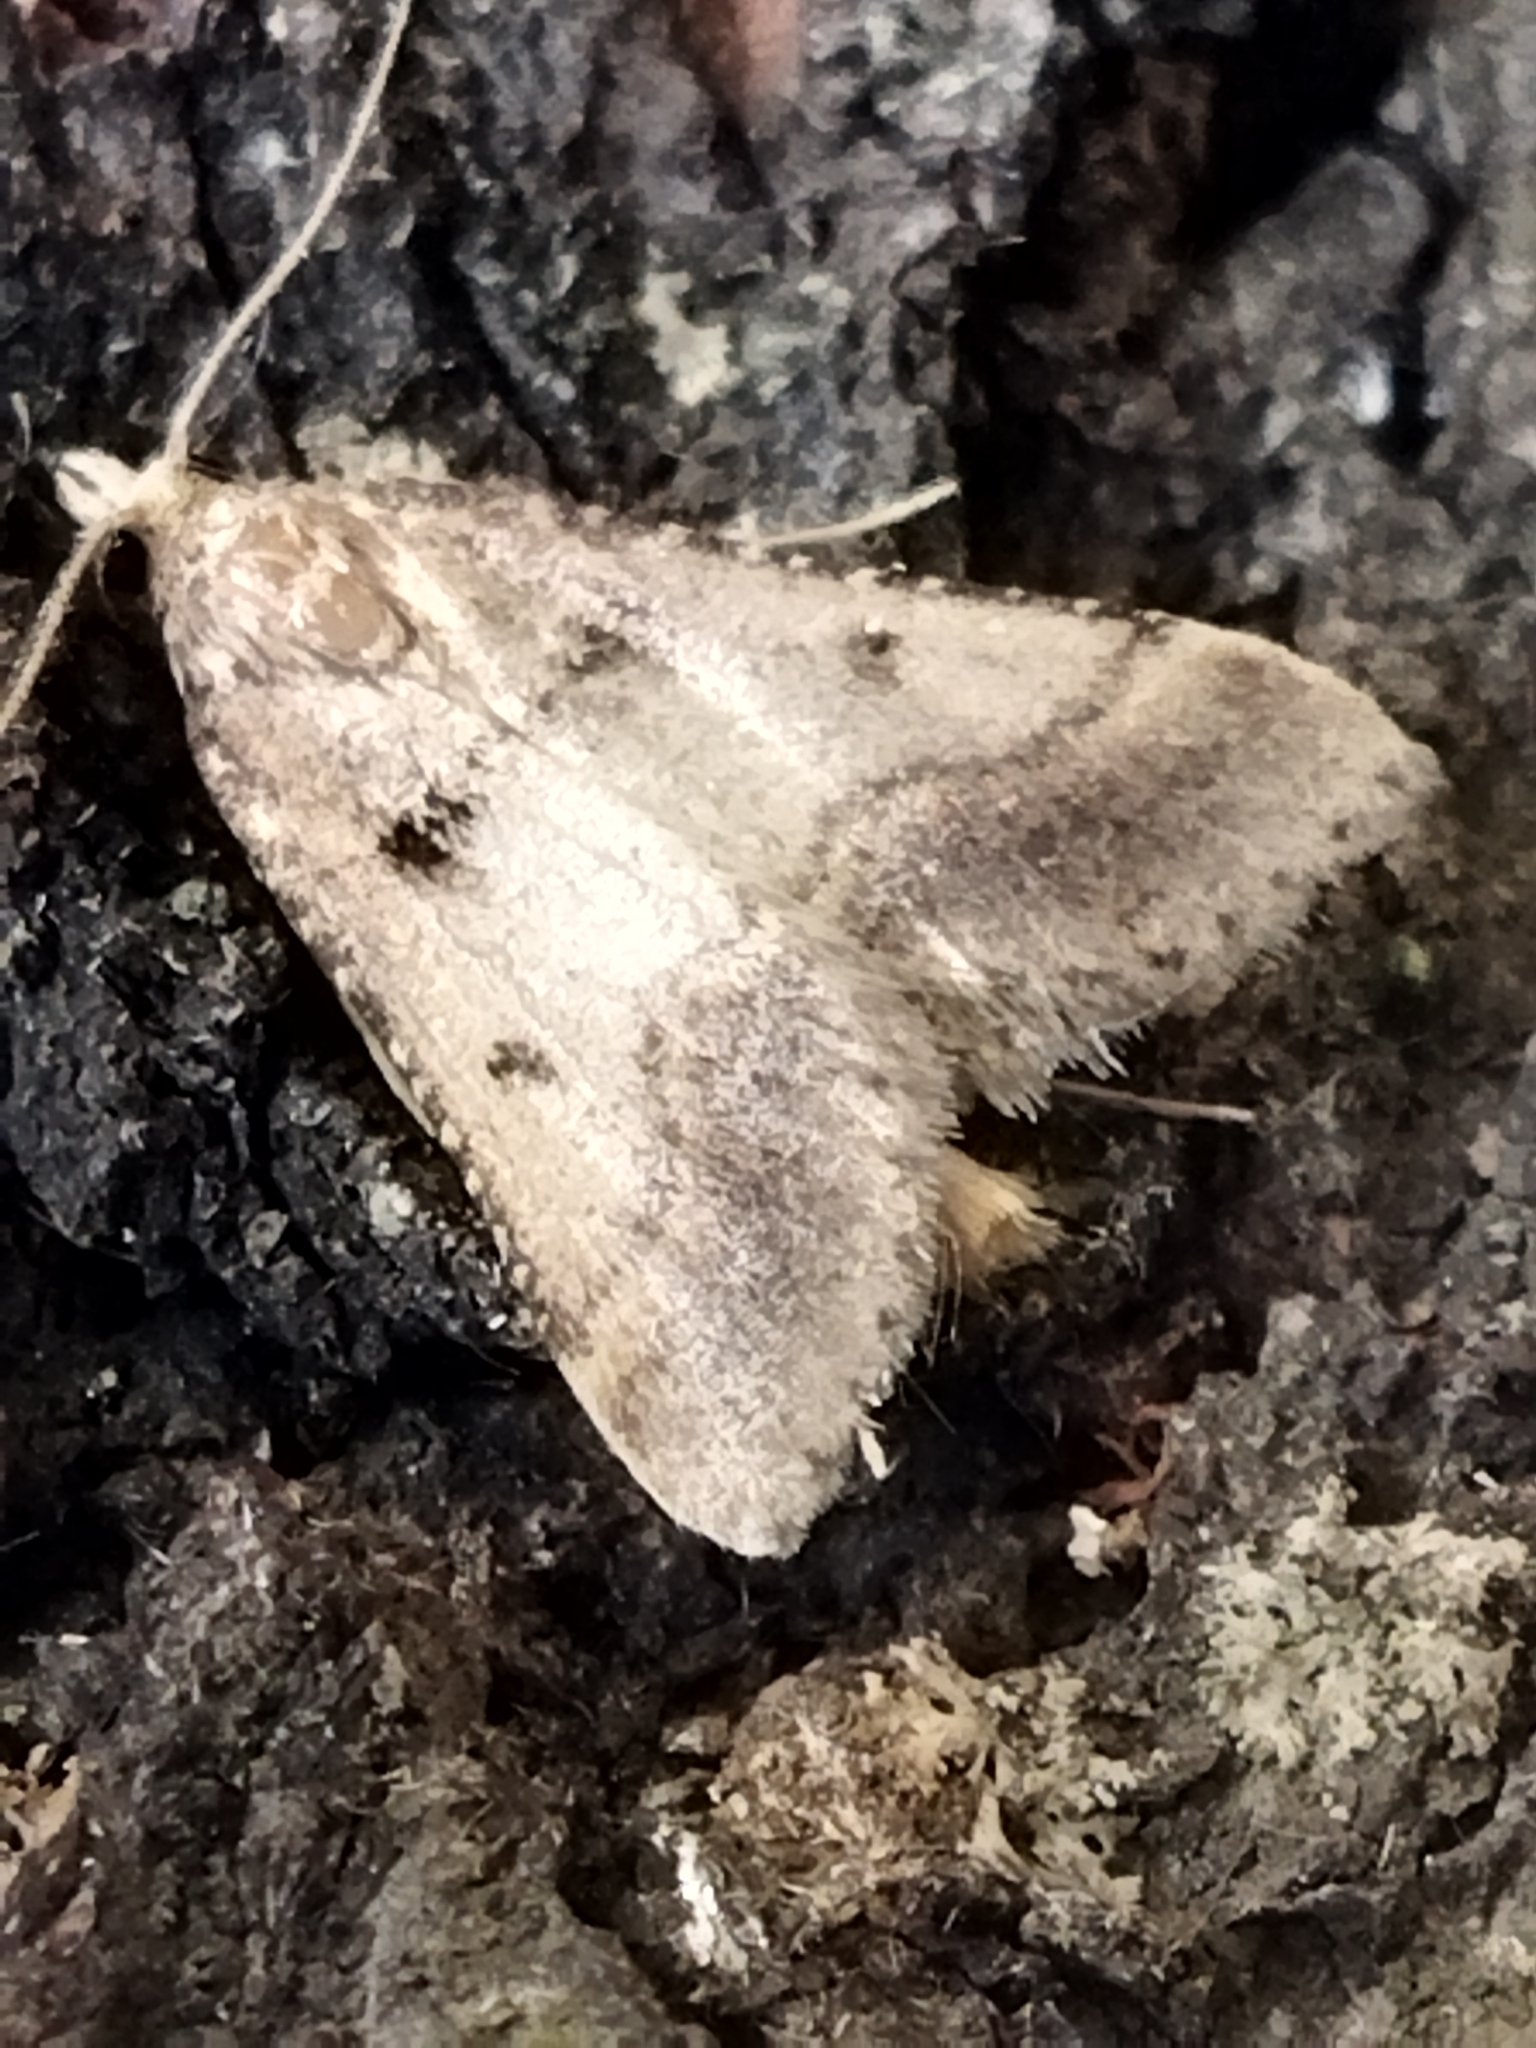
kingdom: Animalia
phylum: Arthropoda
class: Insecta
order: Lepidoptera
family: Pyralidae
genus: Stemmatophora
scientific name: Stemmatophora brunnealis
